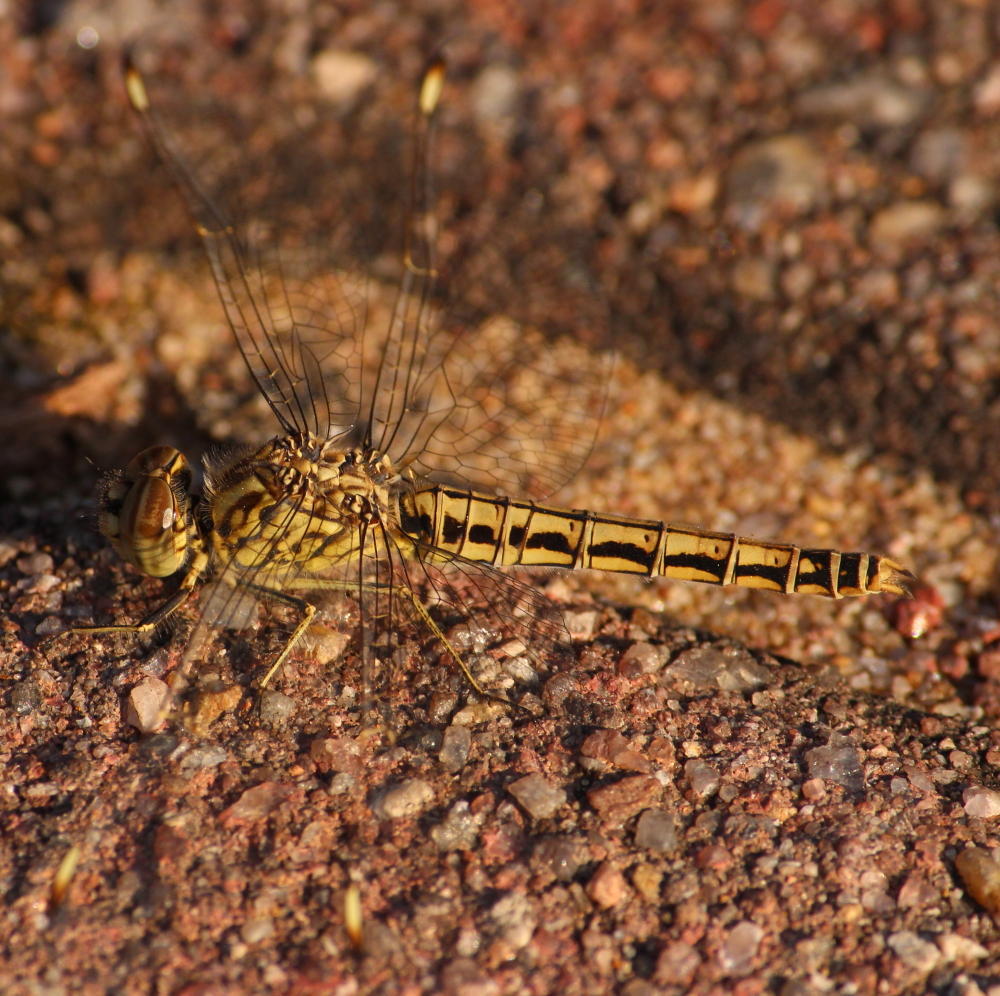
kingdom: Animalia
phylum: Arthropoda
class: Insecta
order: Odonata
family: Libellulidae
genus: Brachythemis
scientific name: Brachythemis leucosticta
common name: Banded groundling
